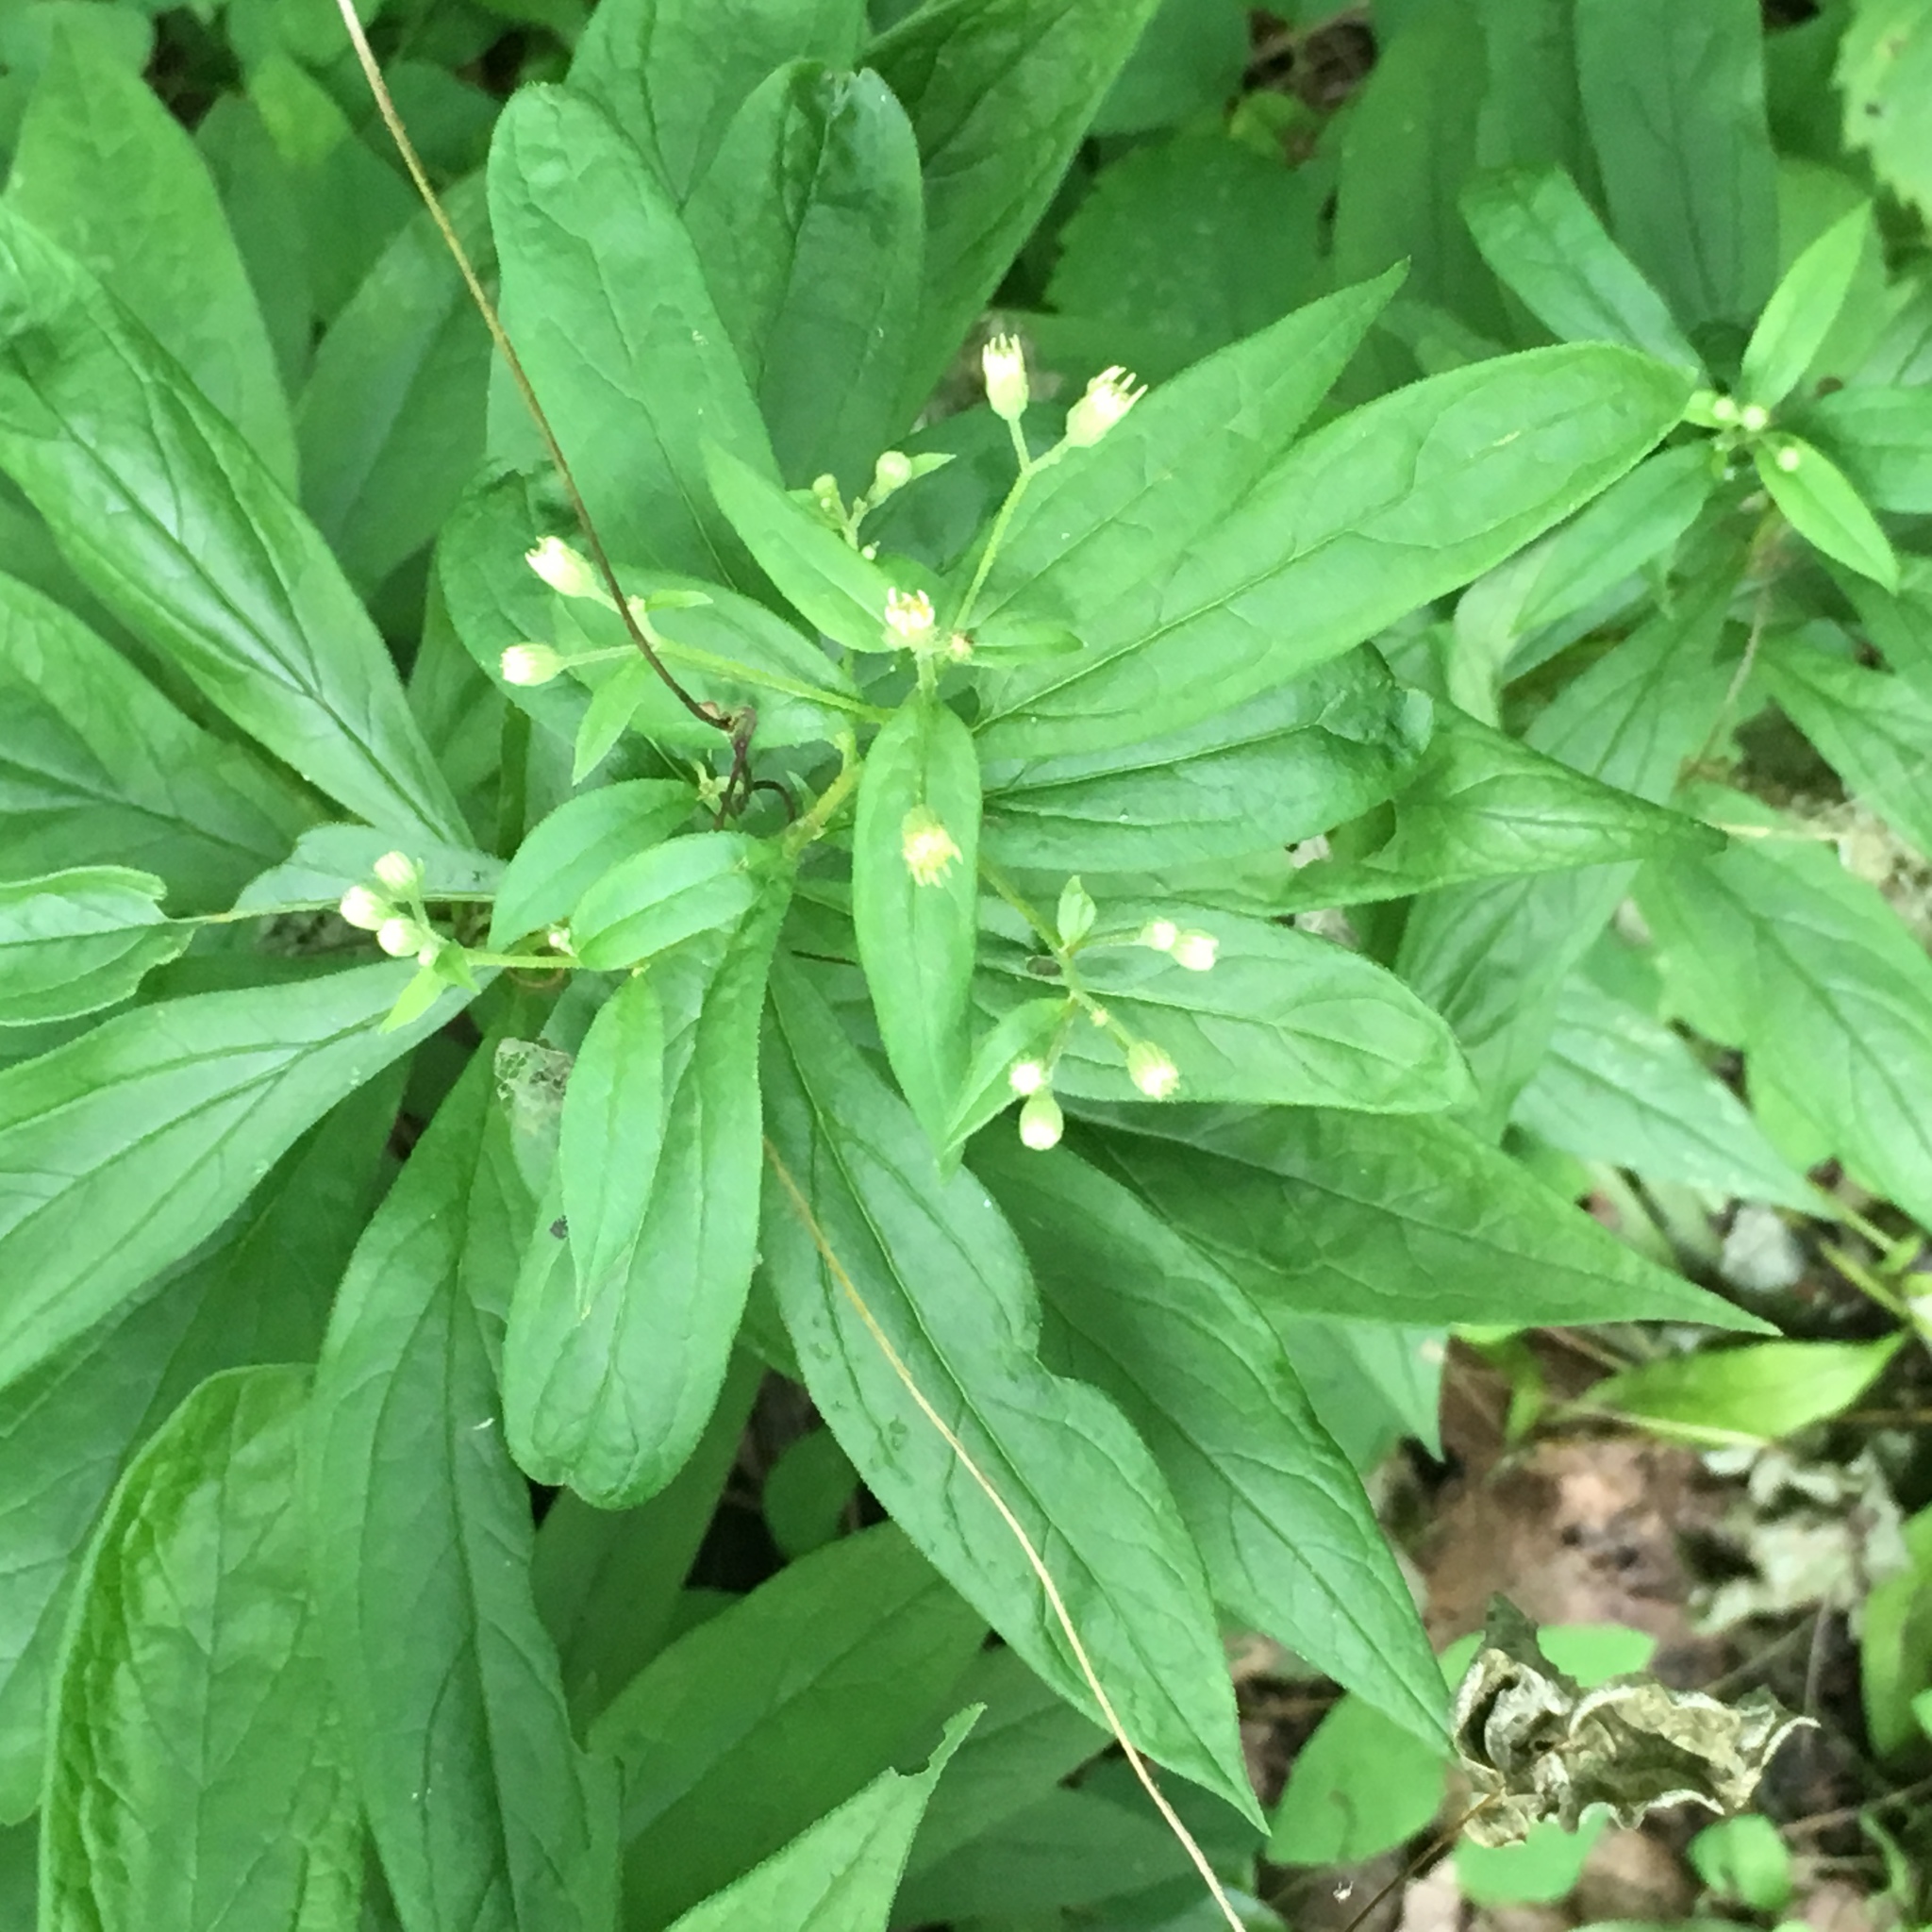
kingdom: Plantae
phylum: Tracheophyta
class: Magnoliopsida
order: Asterales
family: Asteraceae
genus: Doellingeria
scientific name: Doellingeria umbellata
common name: Flat-top white aster
